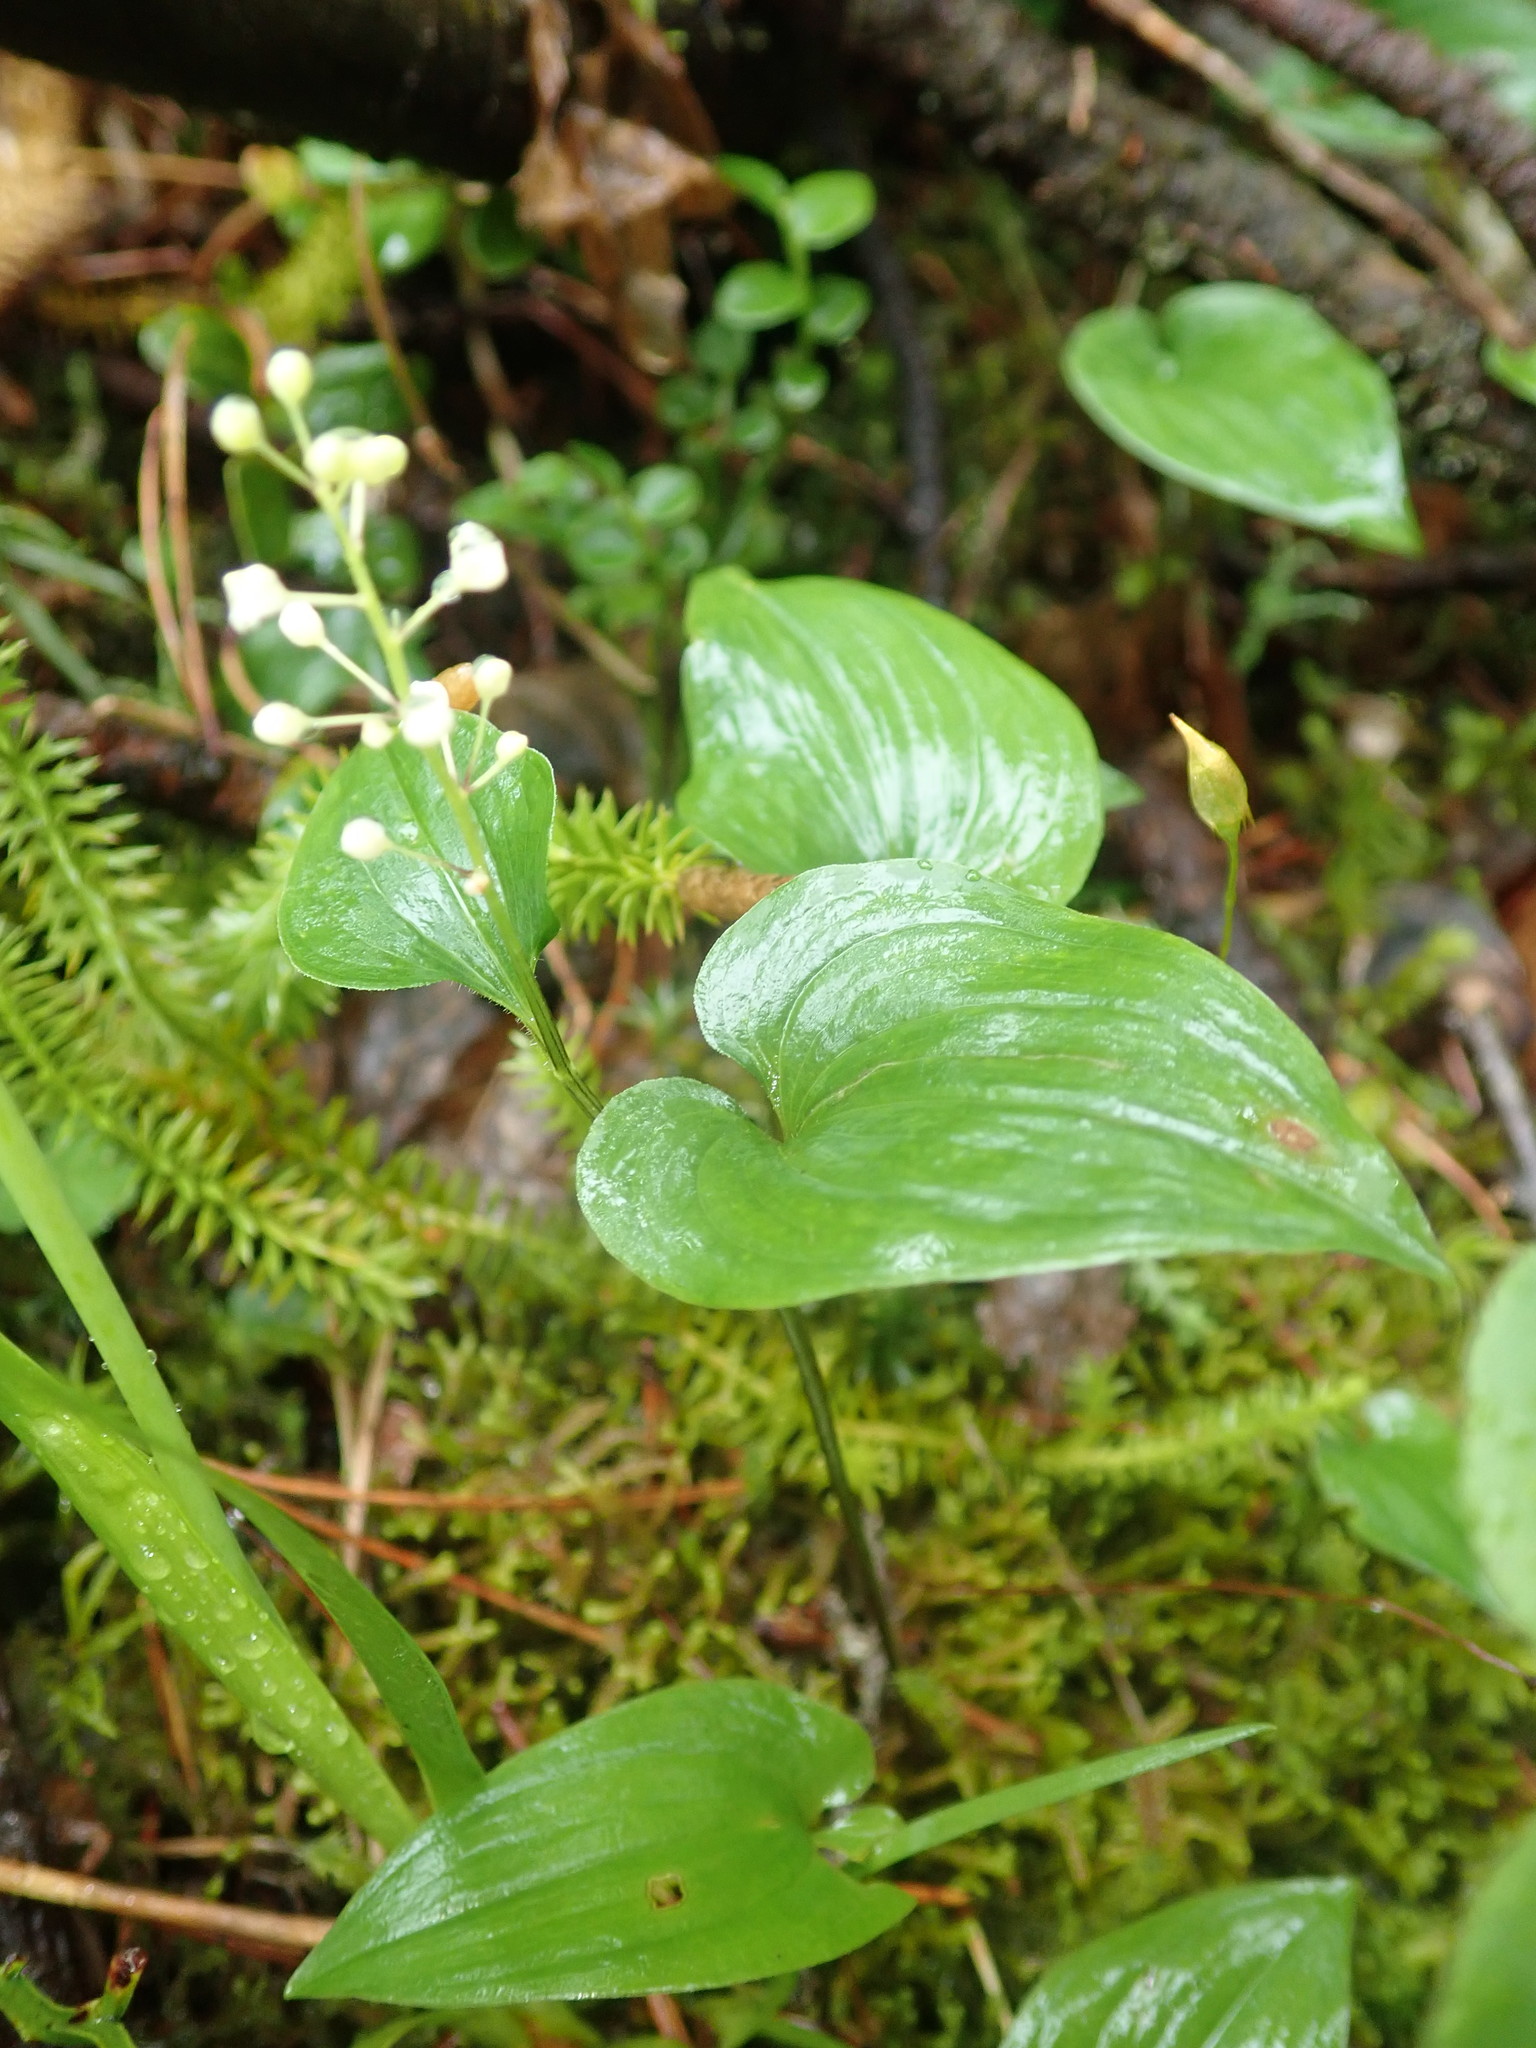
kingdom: Plantae
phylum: Tracheophyta
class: Liliopsida
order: Asparagales
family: Asparagaceae
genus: Maianthemum
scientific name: Maianthemum bifolium
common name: May lily
